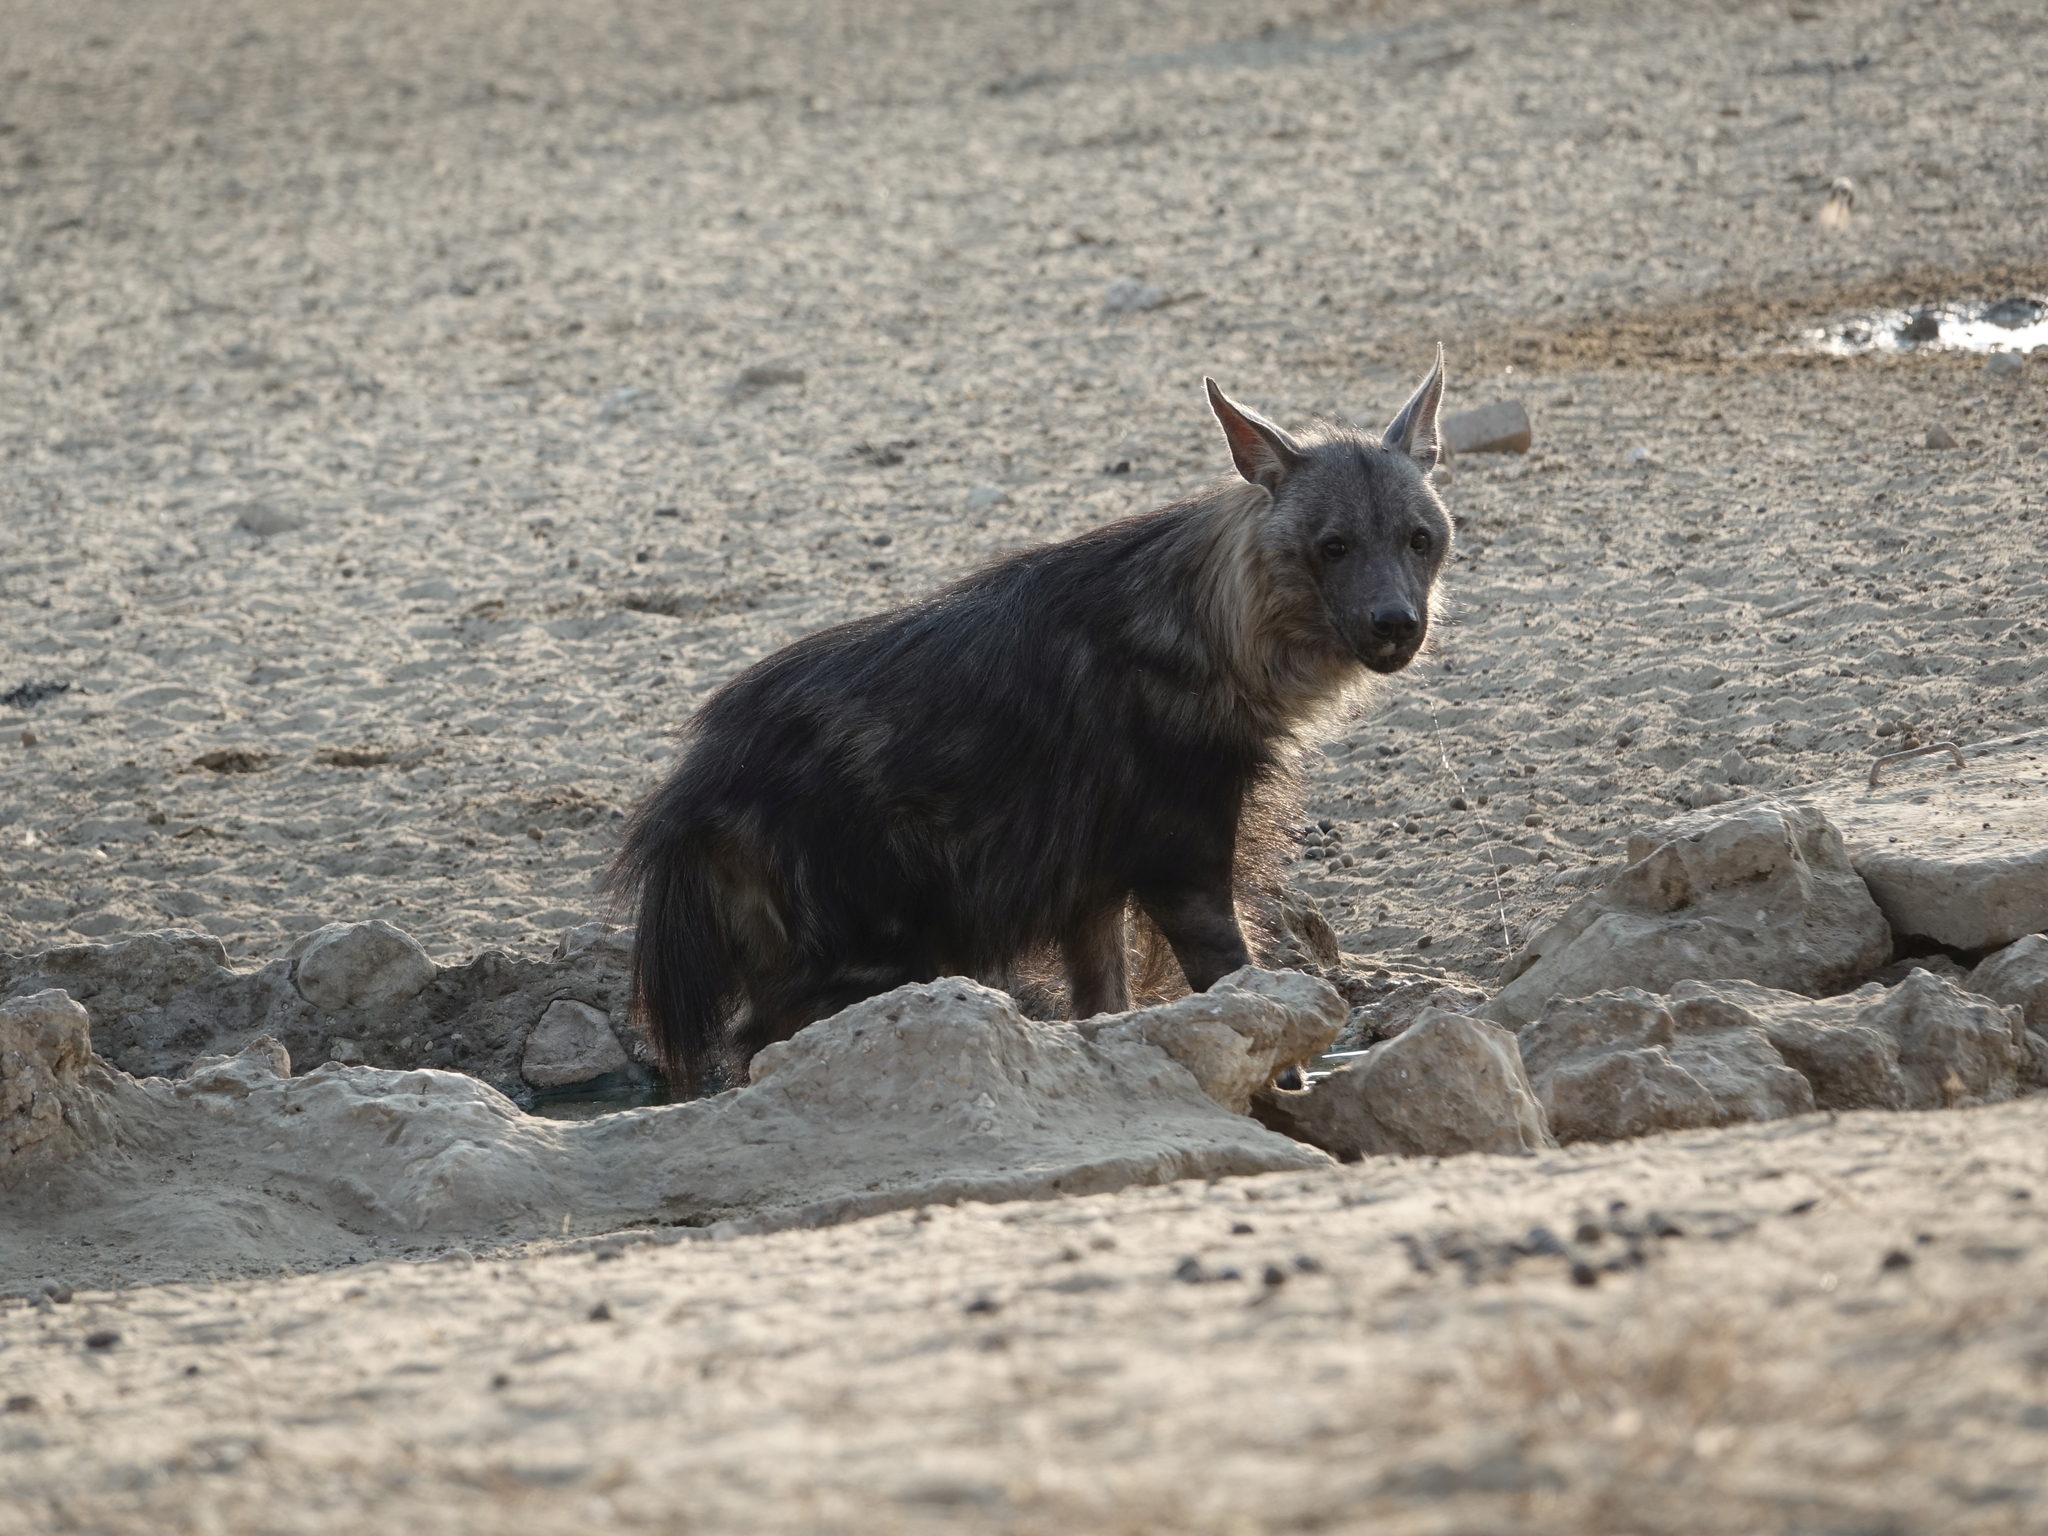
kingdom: Animalia
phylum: Chordata
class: Mammalia
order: Carnivora
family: Hyaenidae
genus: Hyaena
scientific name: Hyaena brunnea
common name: Brown hyena
